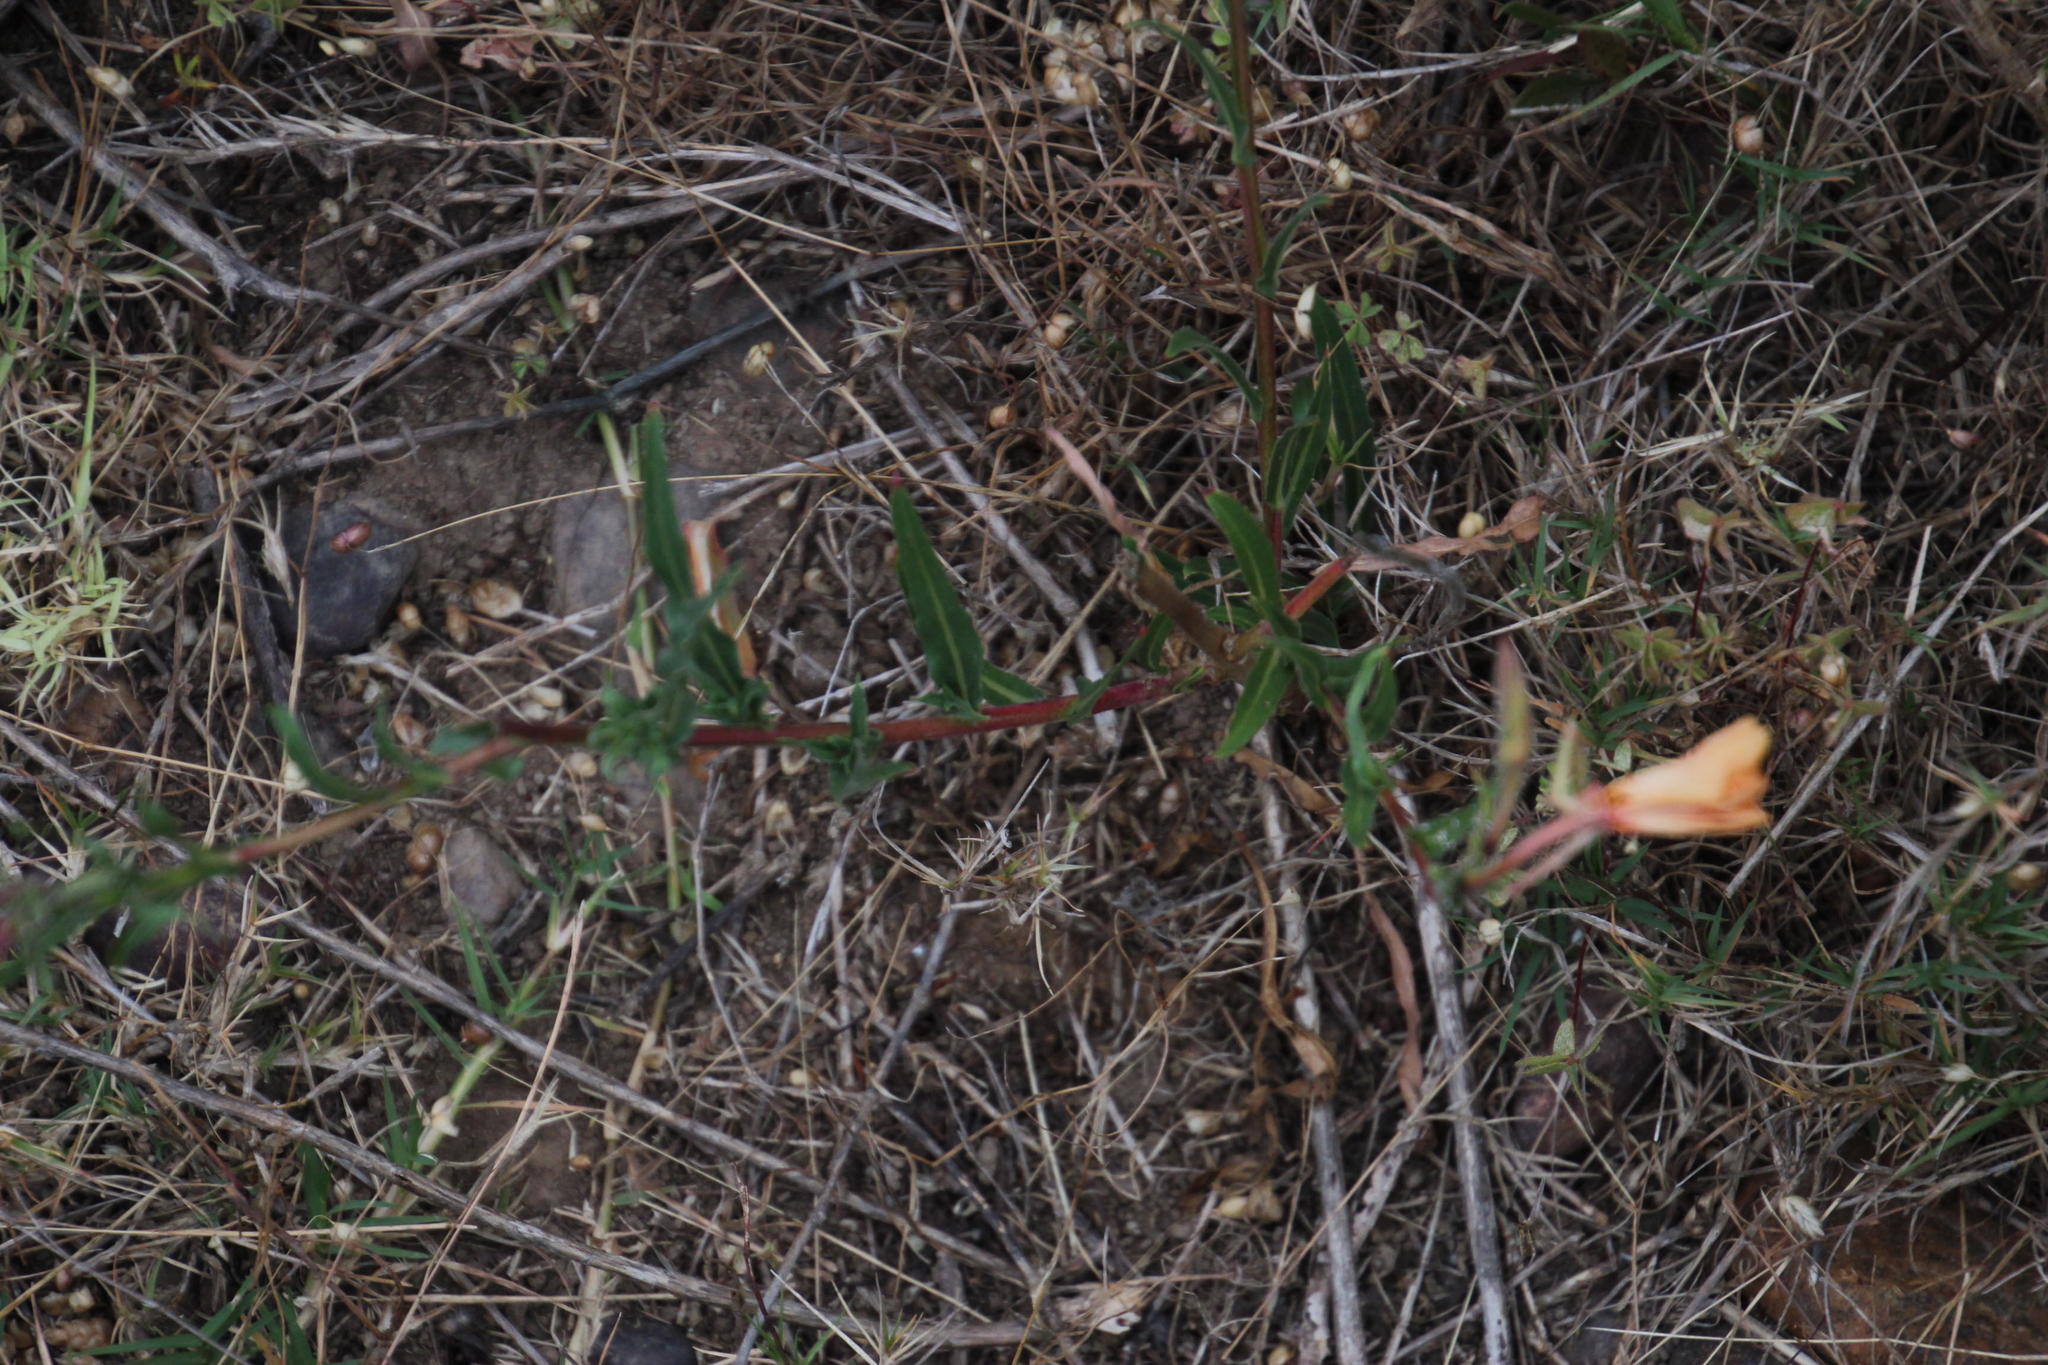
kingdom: Plantae
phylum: Tracheophyta
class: Magnoliopsida
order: Myrtales
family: Onagraceae
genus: Oenothera
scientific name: Oenothera stricta
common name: Fragrant evening-primrose
